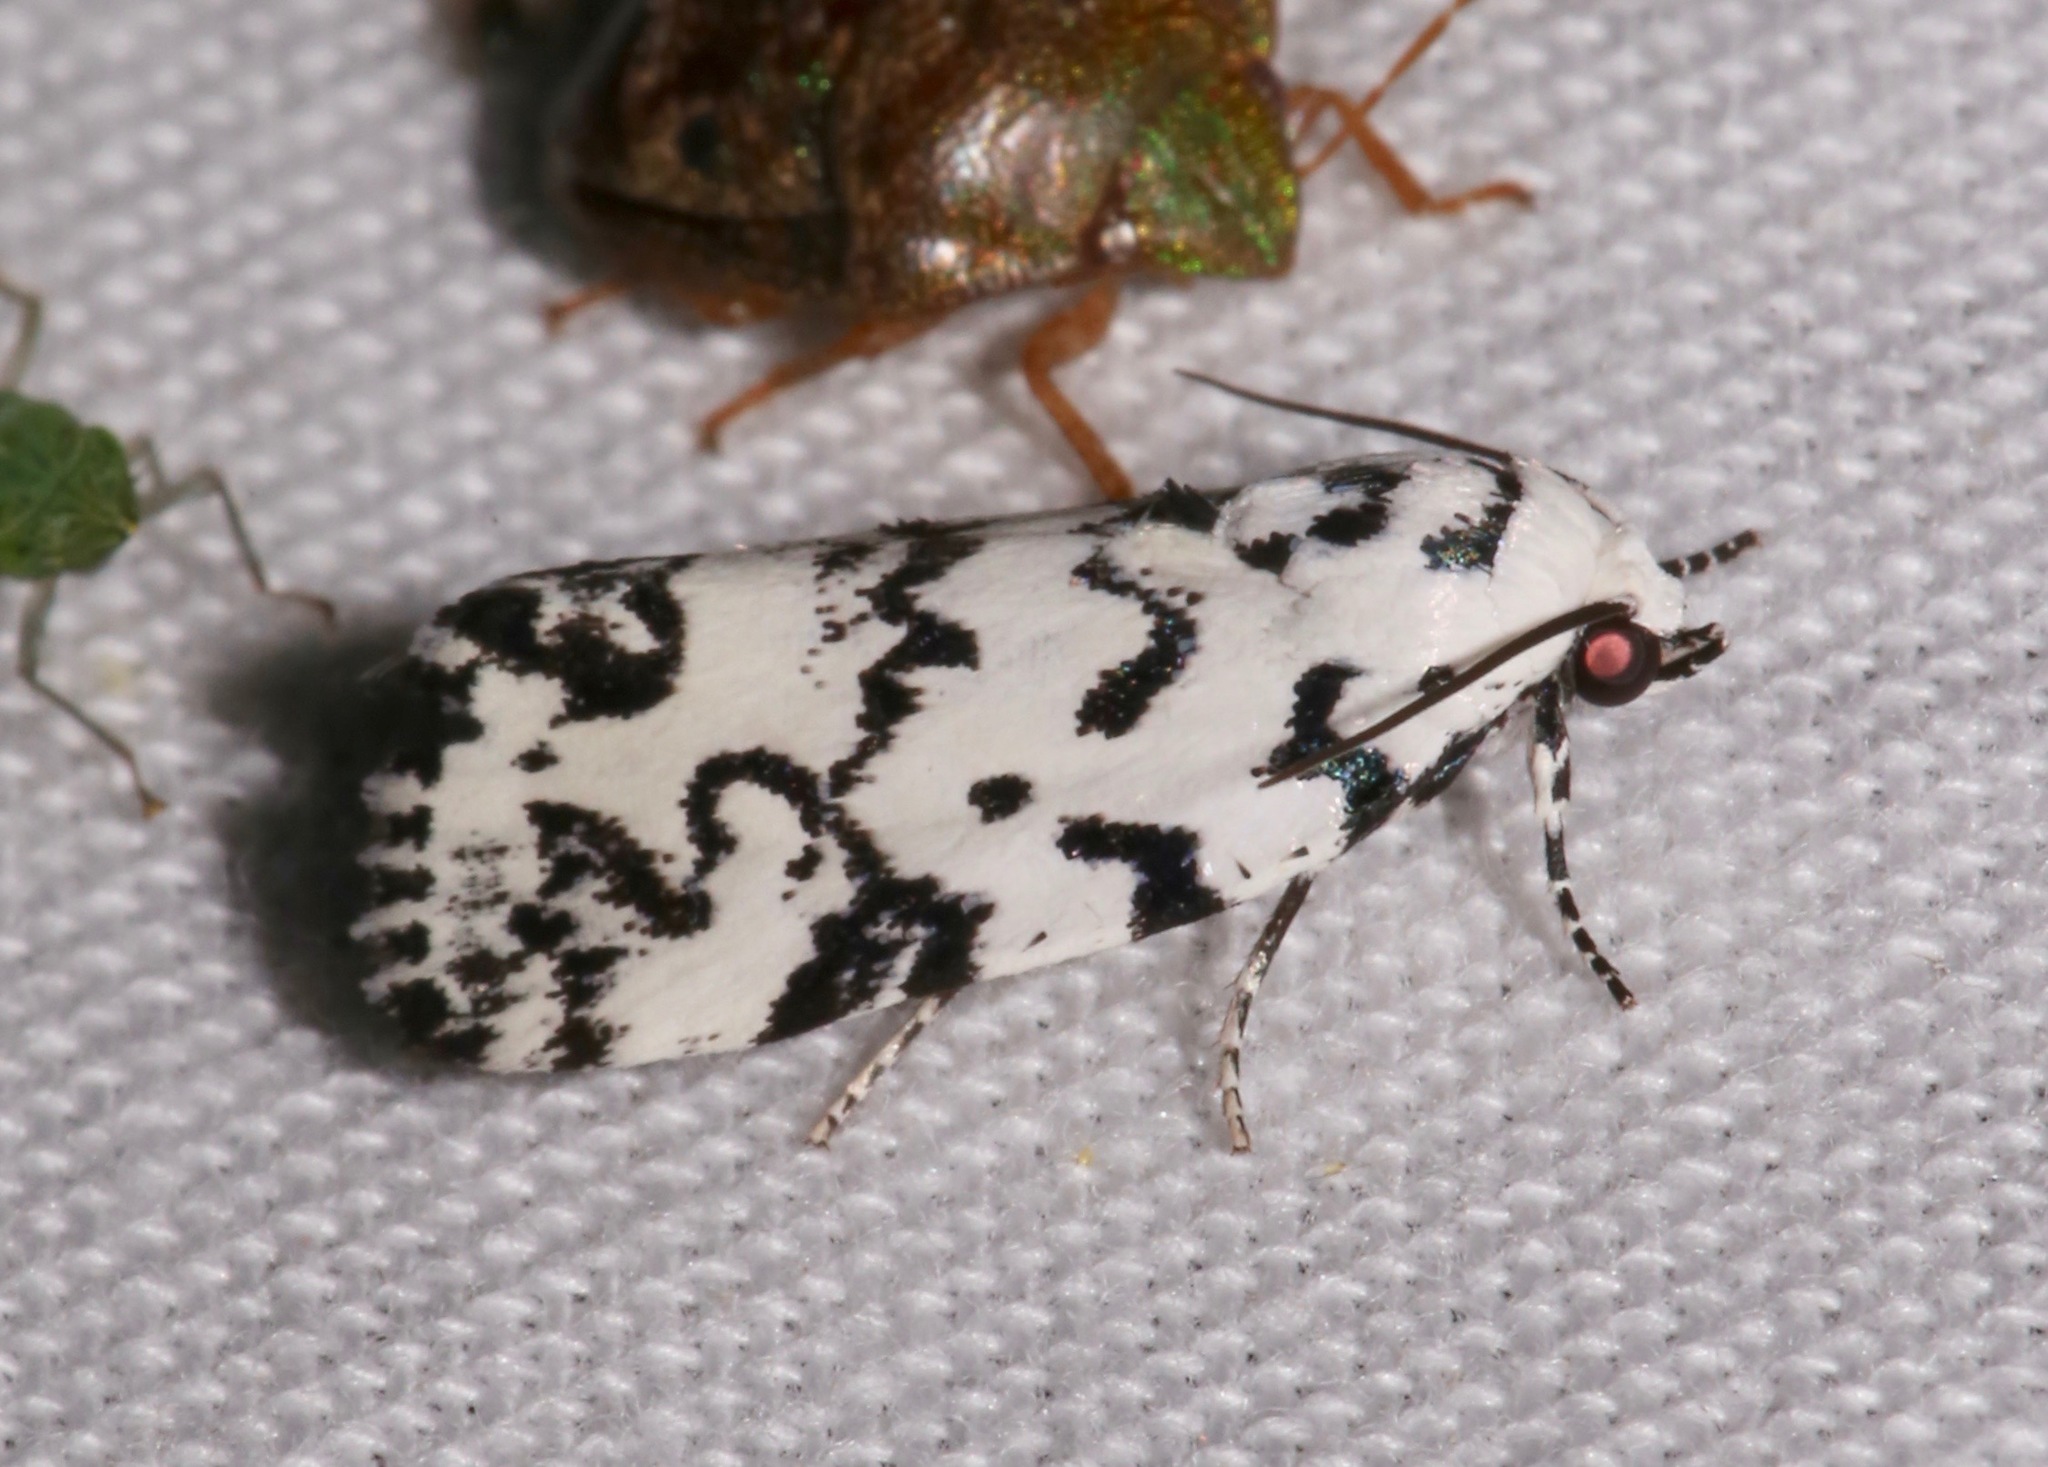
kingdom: Animalia
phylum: Arthropoda
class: Insecta
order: Lepidoptera
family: Noctuidae
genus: Polygrammate
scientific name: Polygrammate hebraeicum
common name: Hebrew moth
